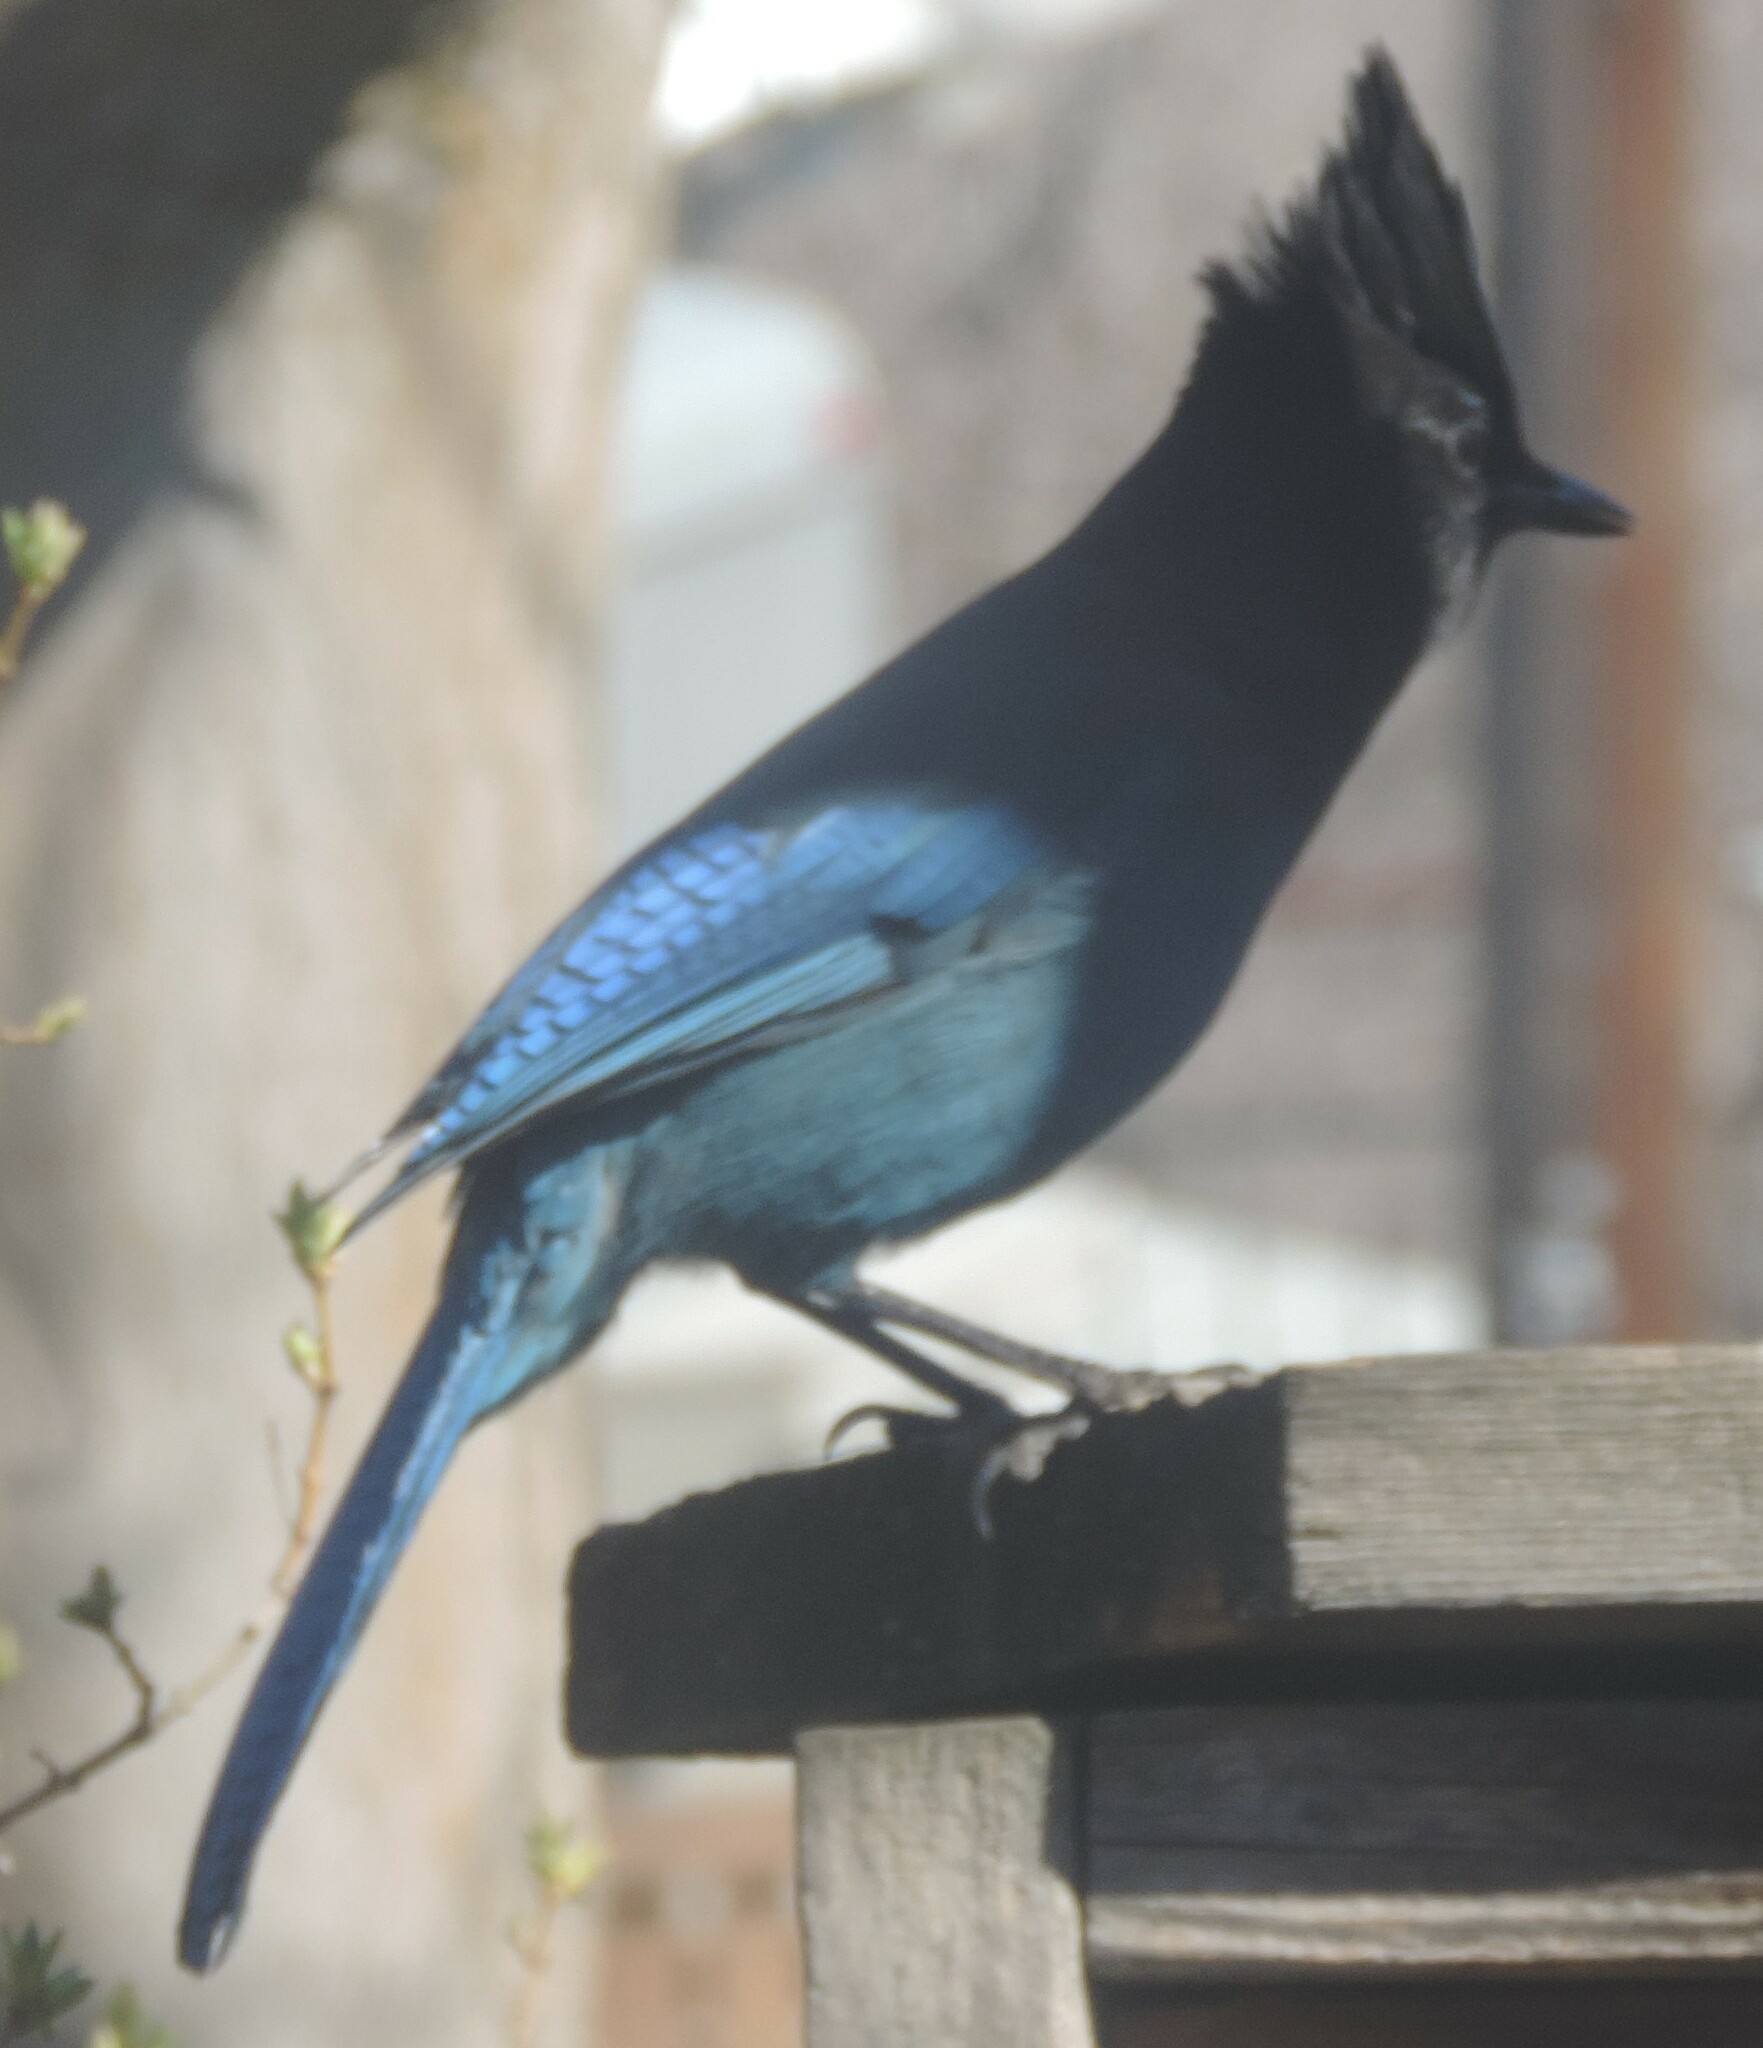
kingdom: Animalia
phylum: Chordata
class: Aves
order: Passeriformes
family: Corvidae
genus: Cyanocitta
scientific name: Cyanocitta stelleri
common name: Steller's jay
